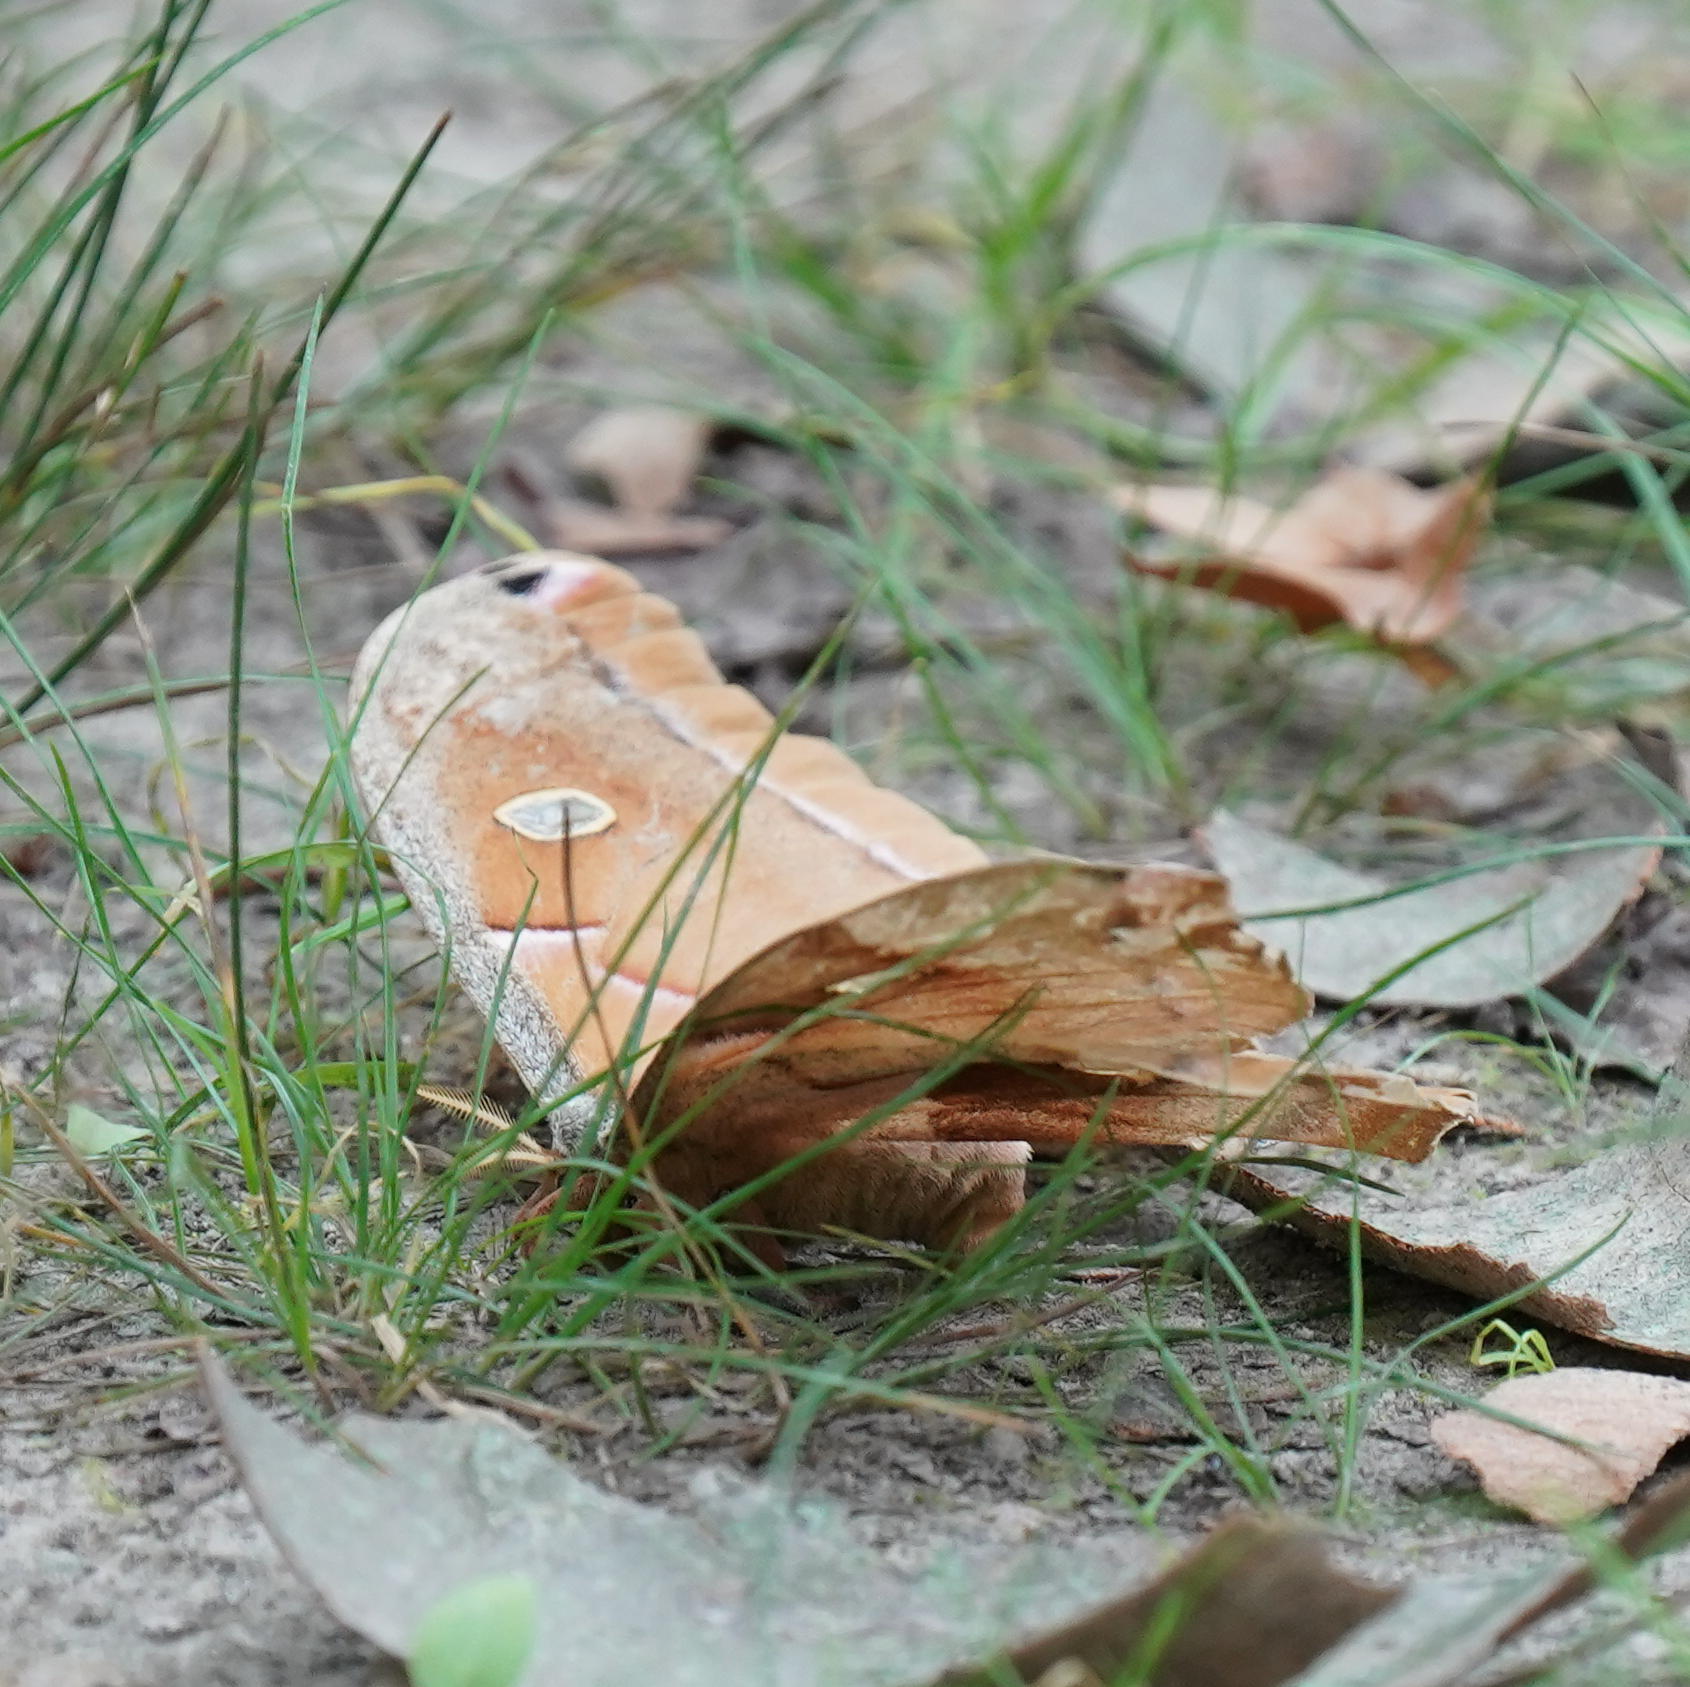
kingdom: Animalia
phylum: Arthropoda
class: Insecta
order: Lepidoptera
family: Saturniidae
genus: Antheraea
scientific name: Antheraea polyphemus
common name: Polyphemus moth
